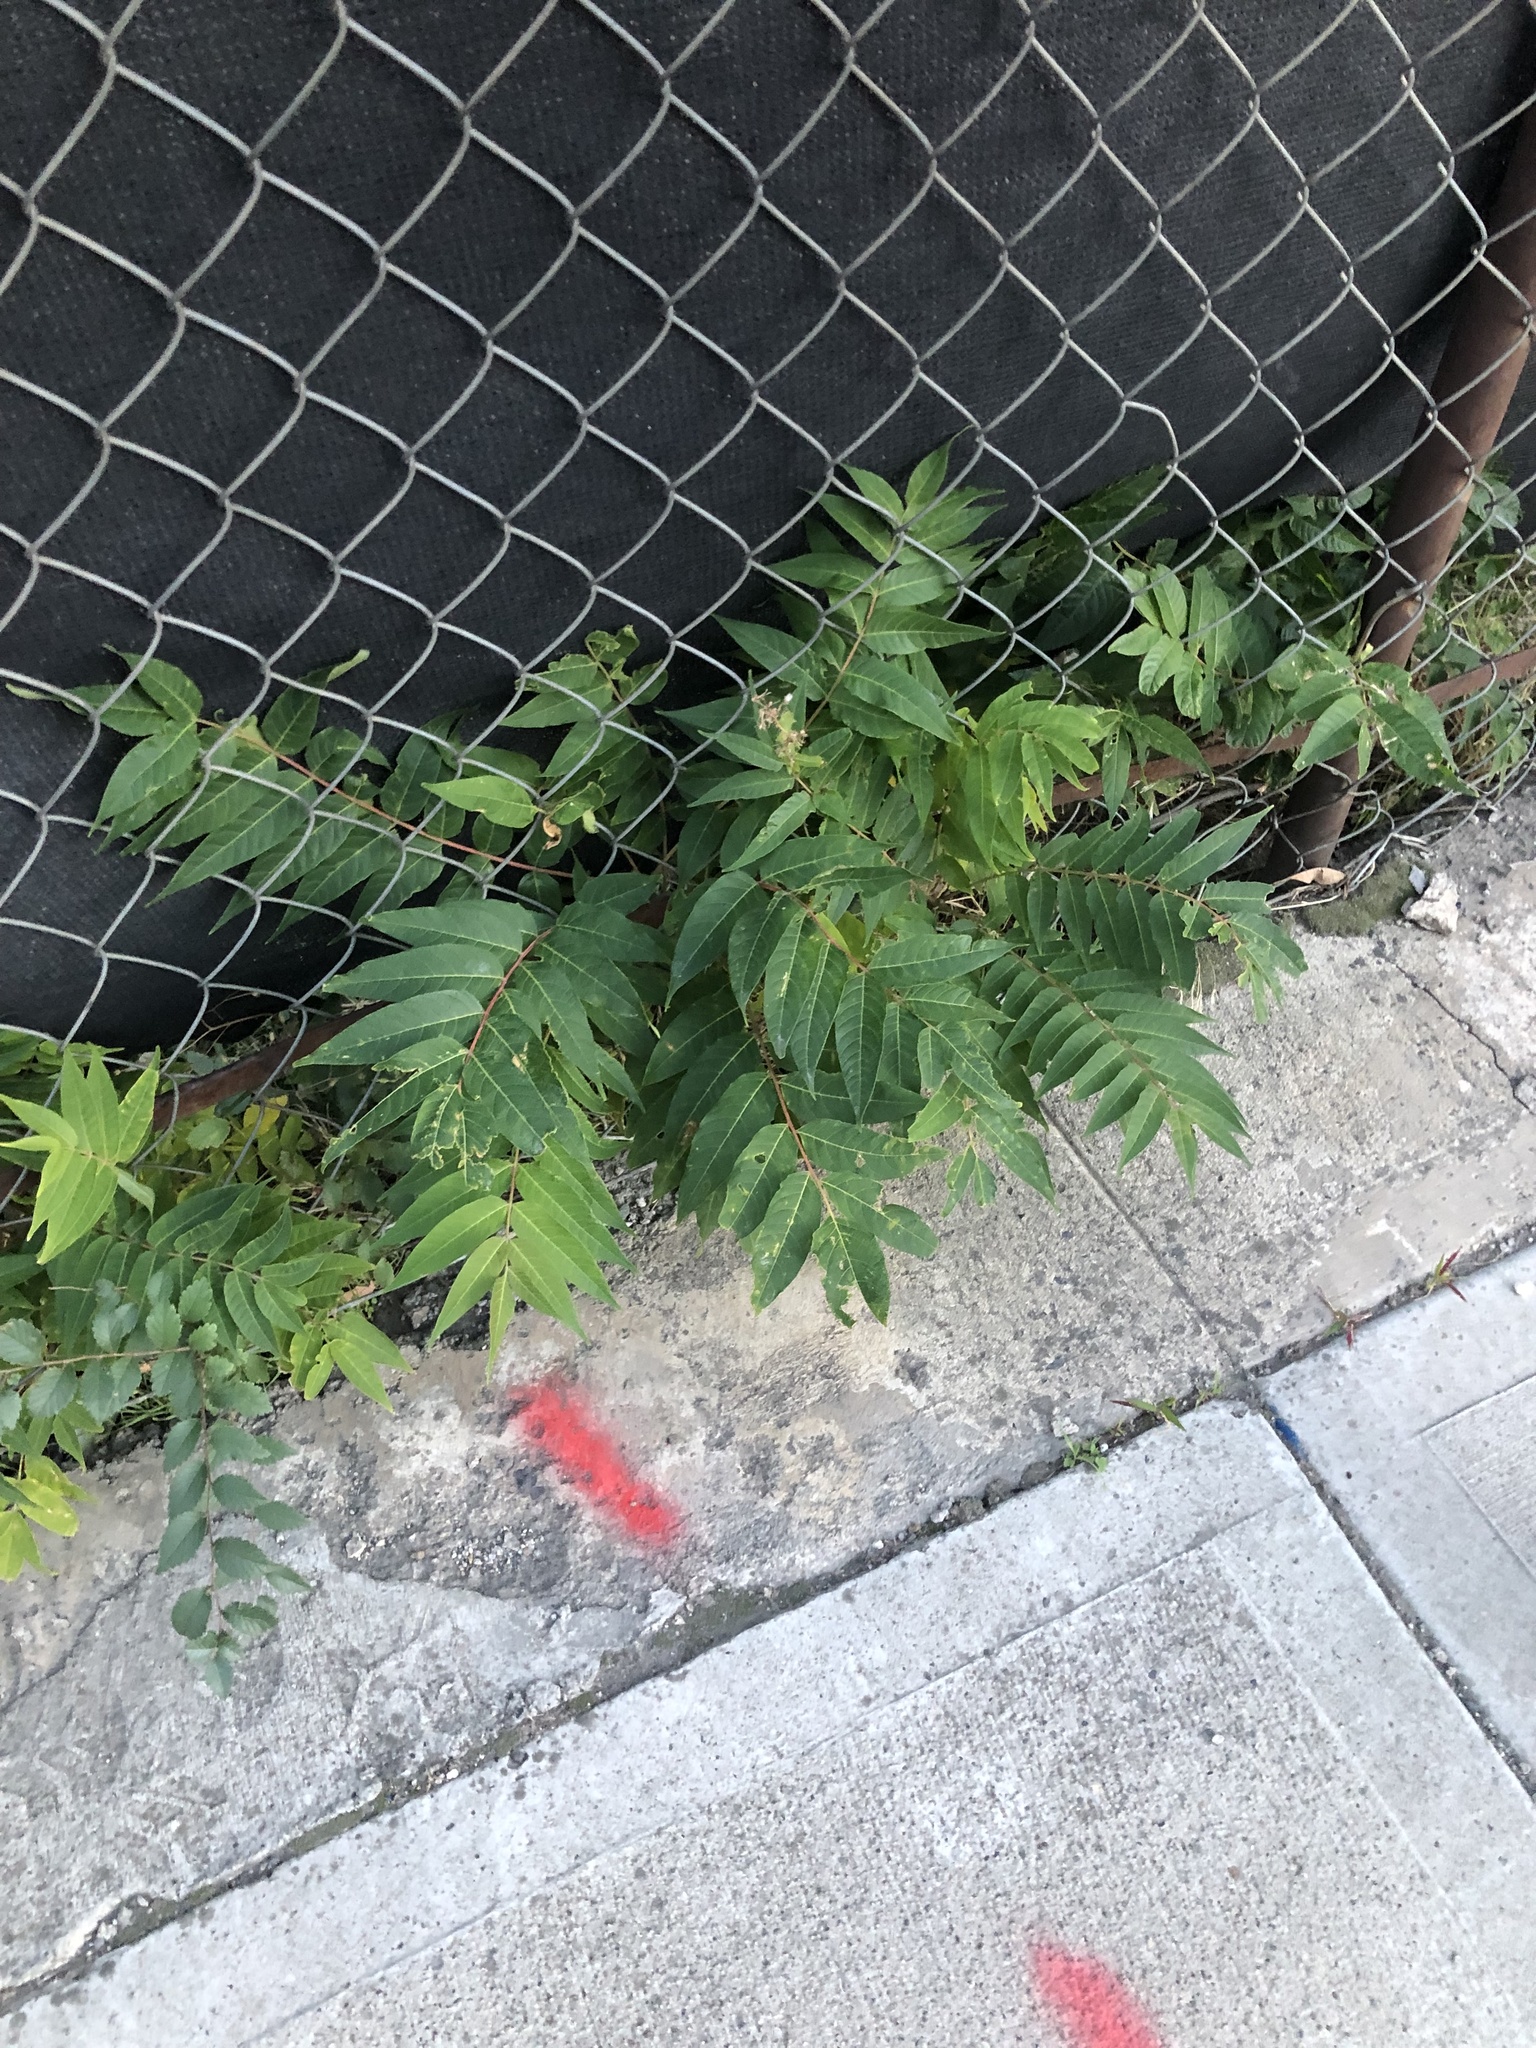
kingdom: Plantae
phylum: Tracheophyta
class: Magnoliopsida
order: Sapindales
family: Simaroubaceae
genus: Ailanthus
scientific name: Ailanthus altissima
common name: Tree-of-heaven
